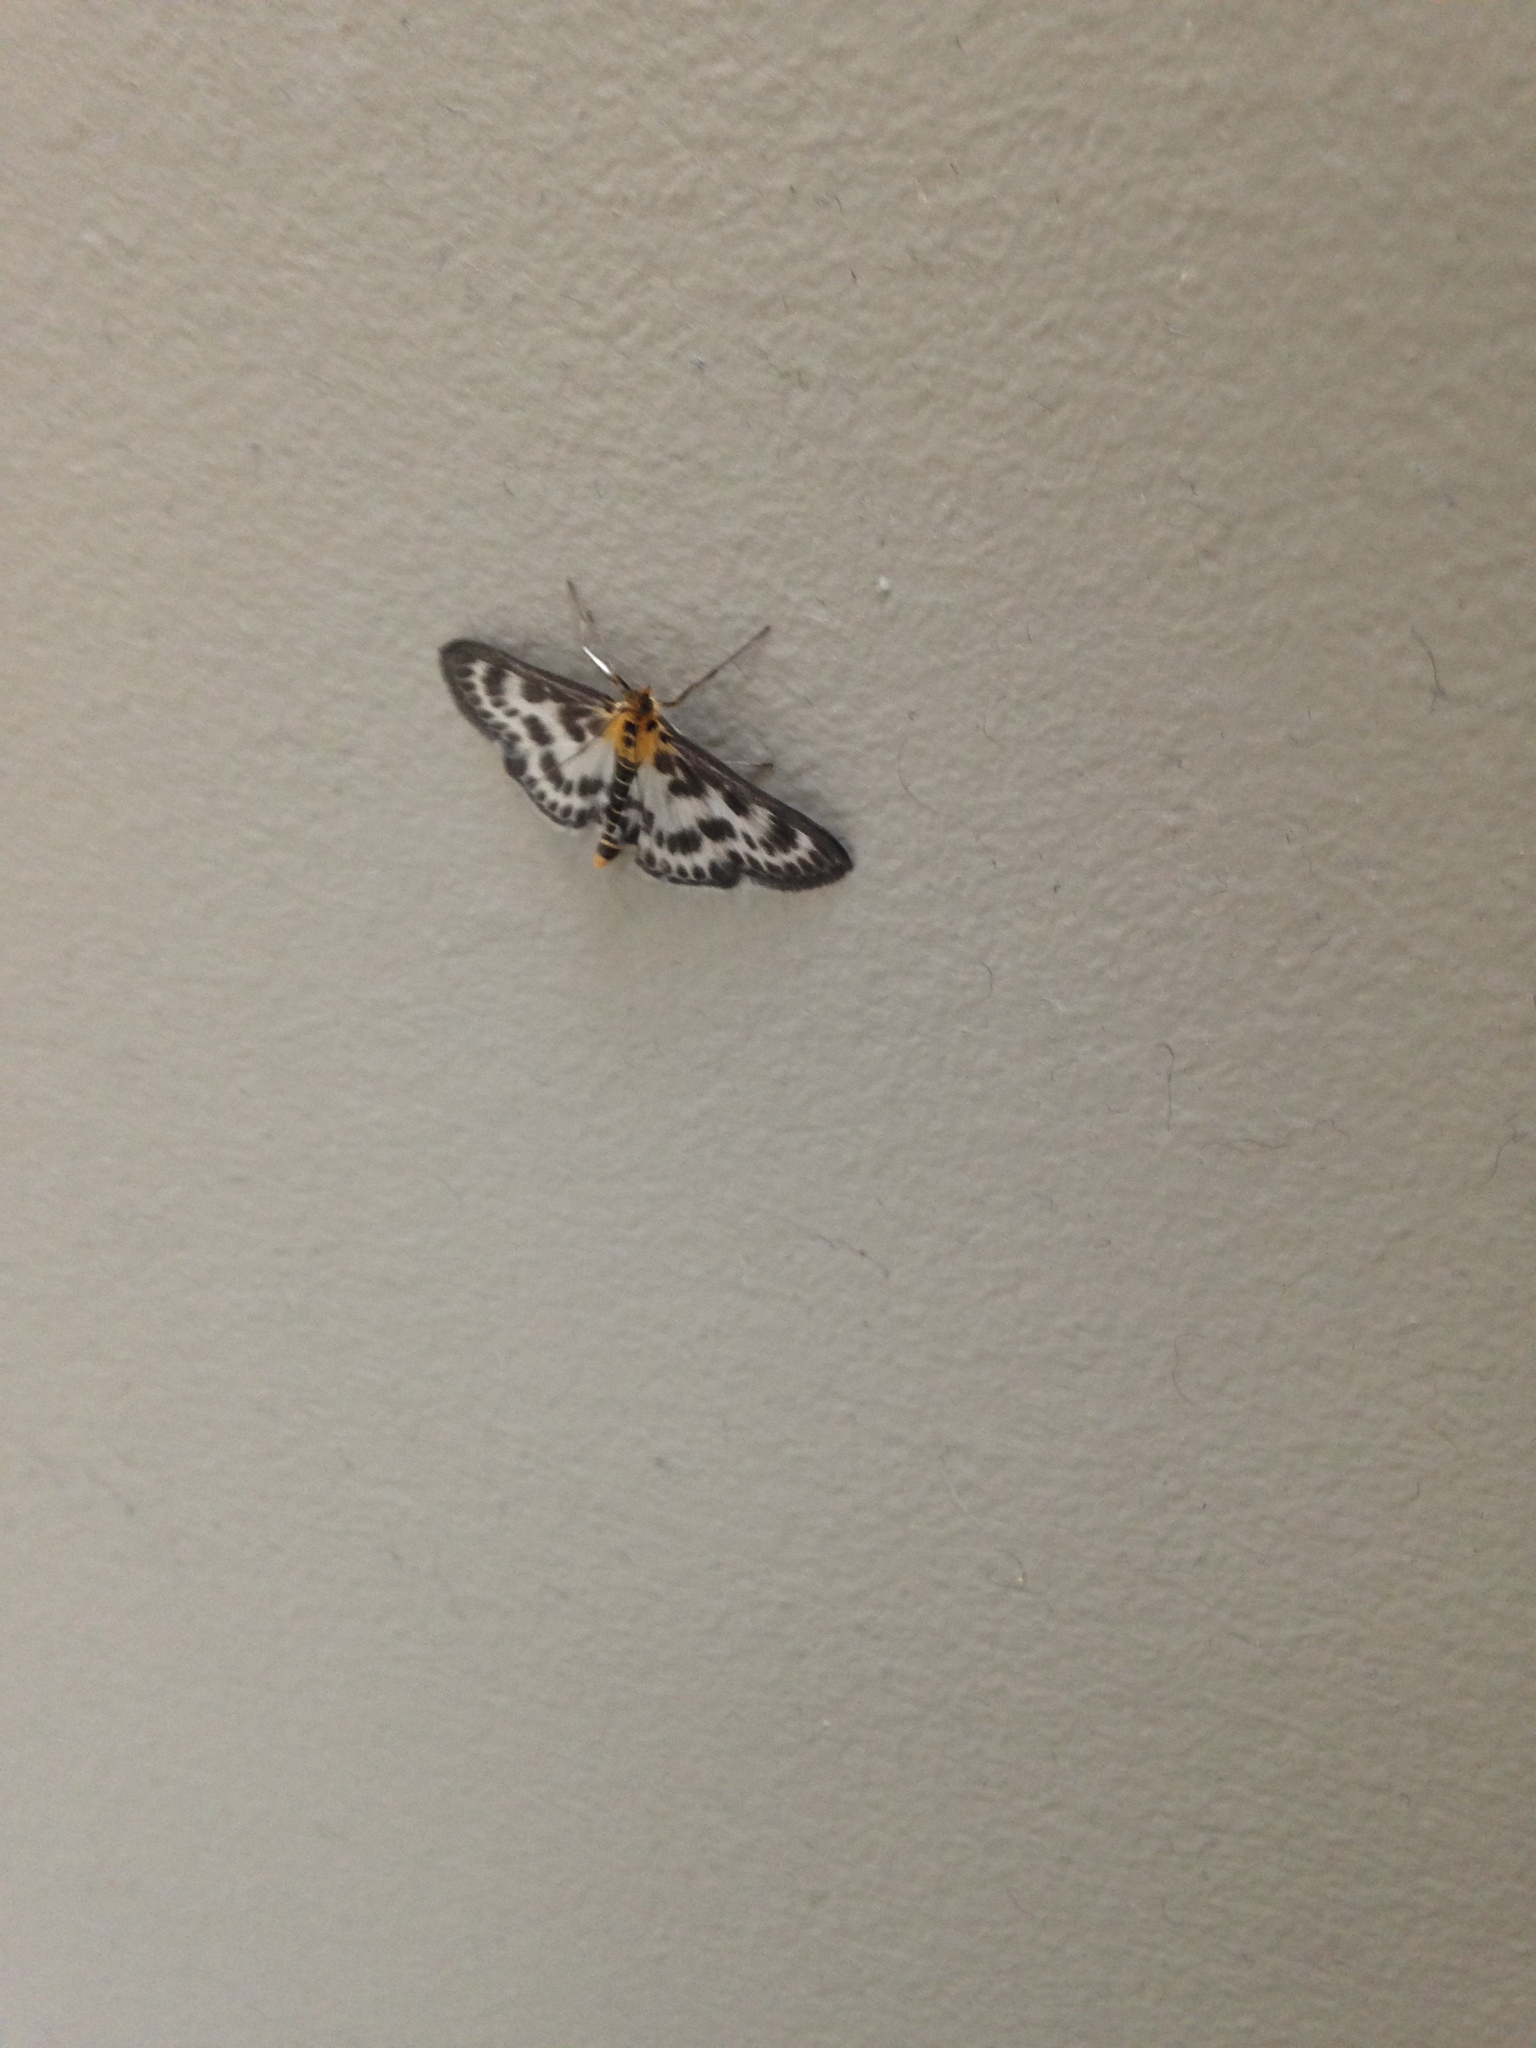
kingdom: Animalia
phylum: Arthropoda
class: Insecta
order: Lepidoptera
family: Crambidae
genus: Anania
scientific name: Anania hortulata
